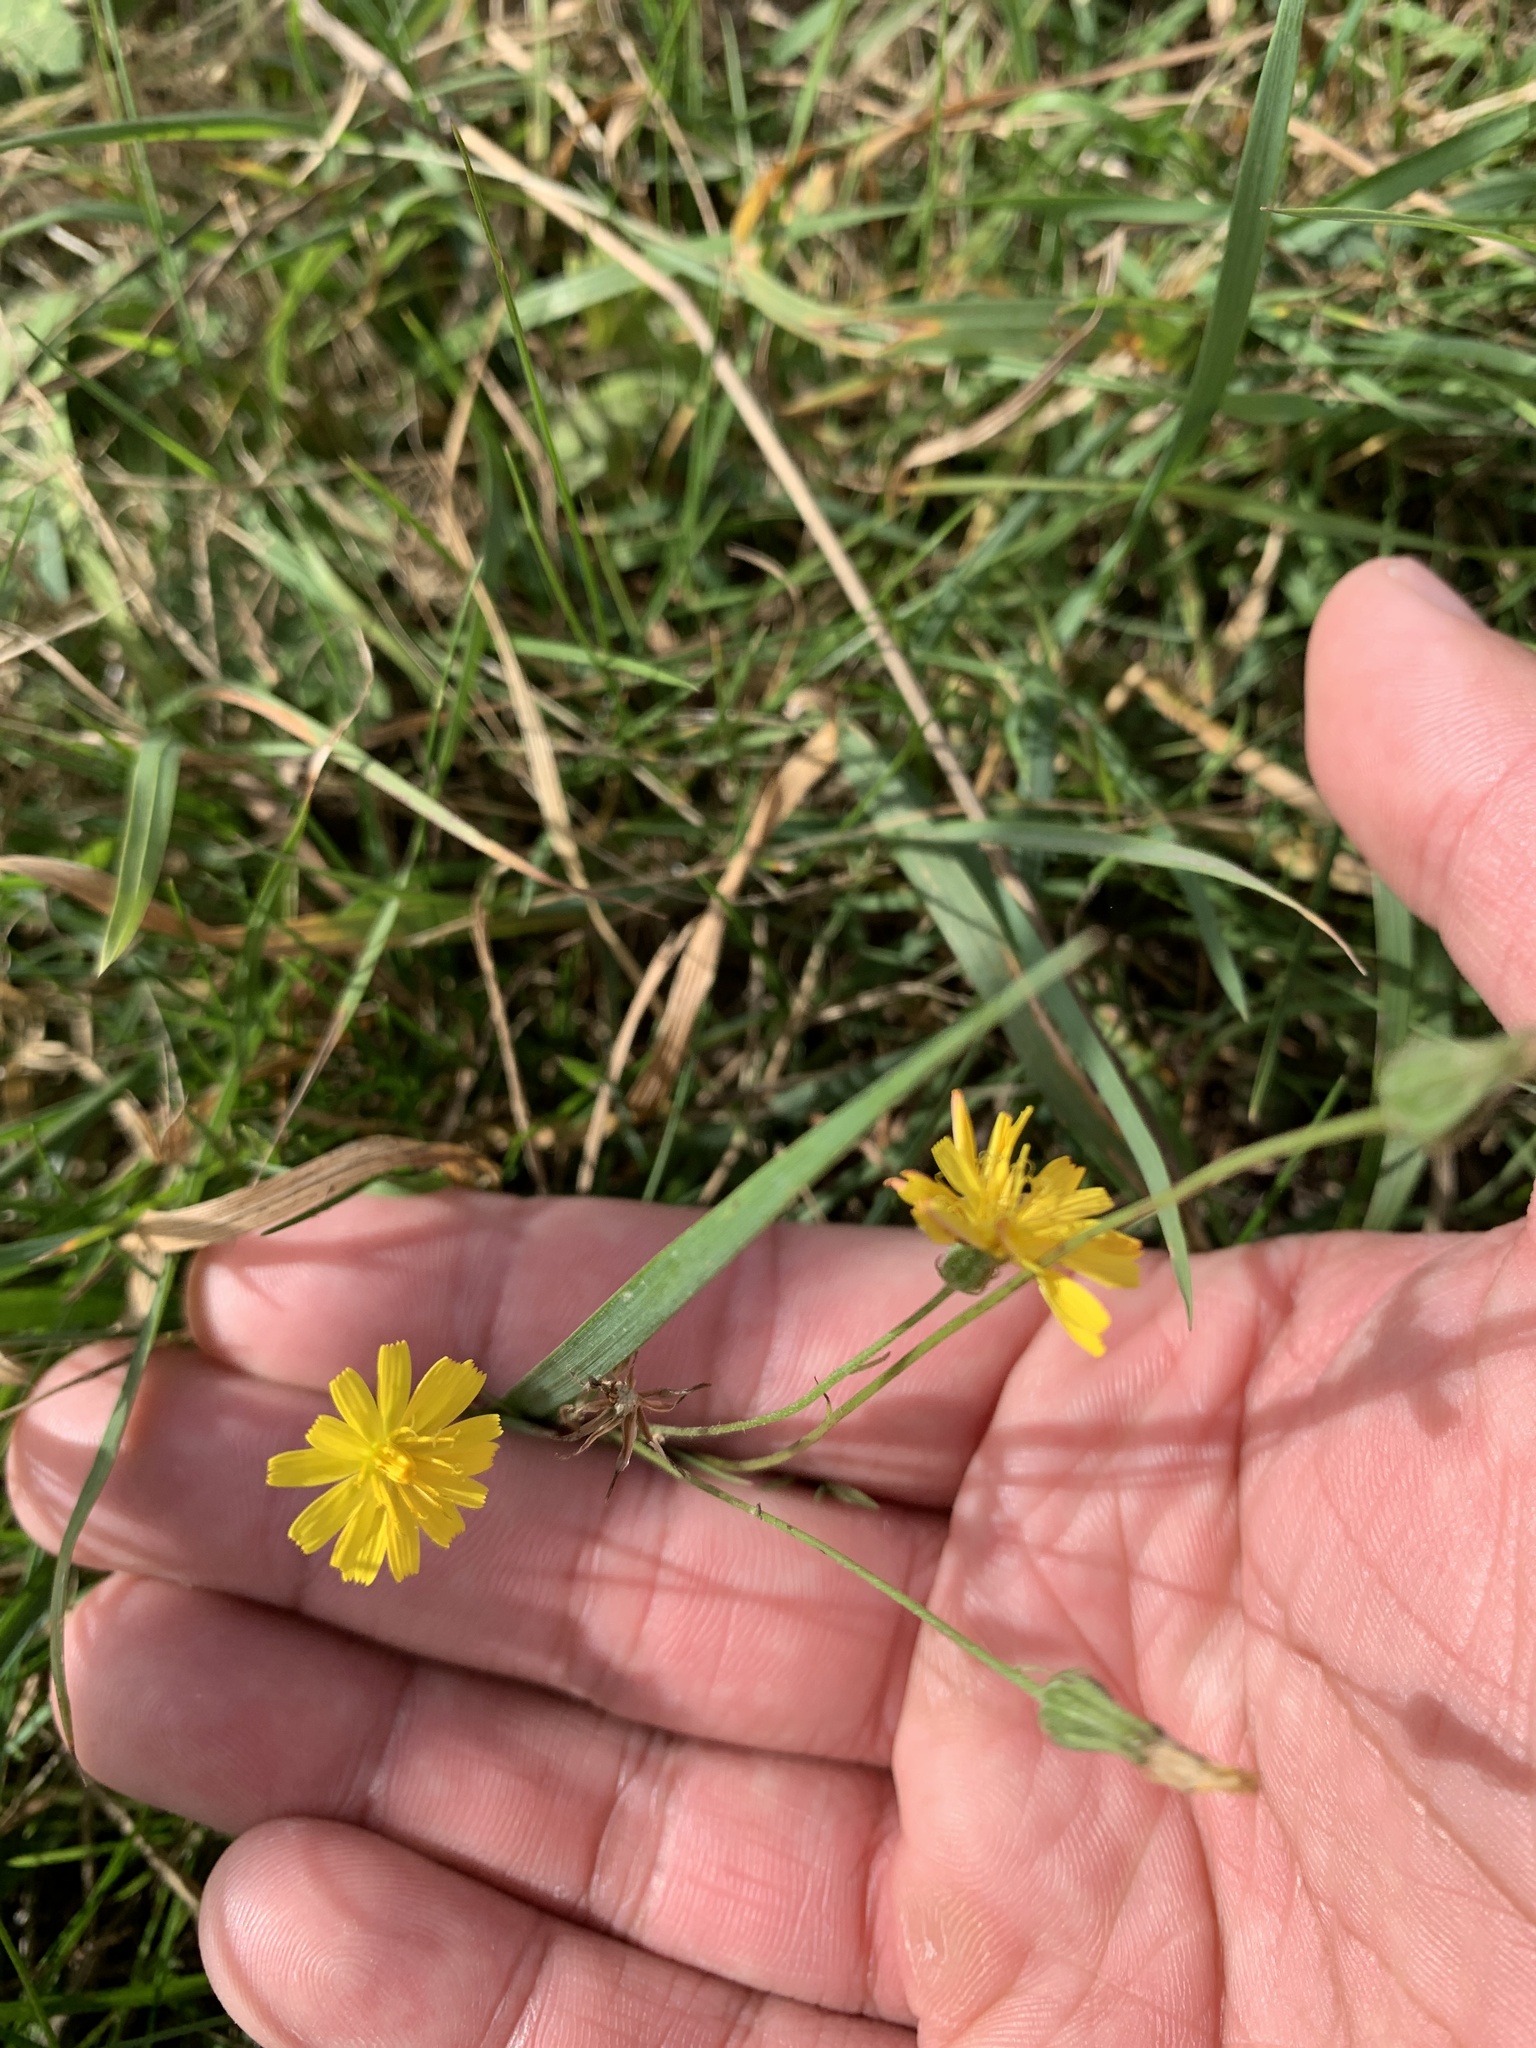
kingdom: Plantae
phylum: Tracheophyta
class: Magnoliopsida
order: Asterales
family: Asteraceae
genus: Crepis
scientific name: Crepis capillaris
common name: Smooth hawksbeard
